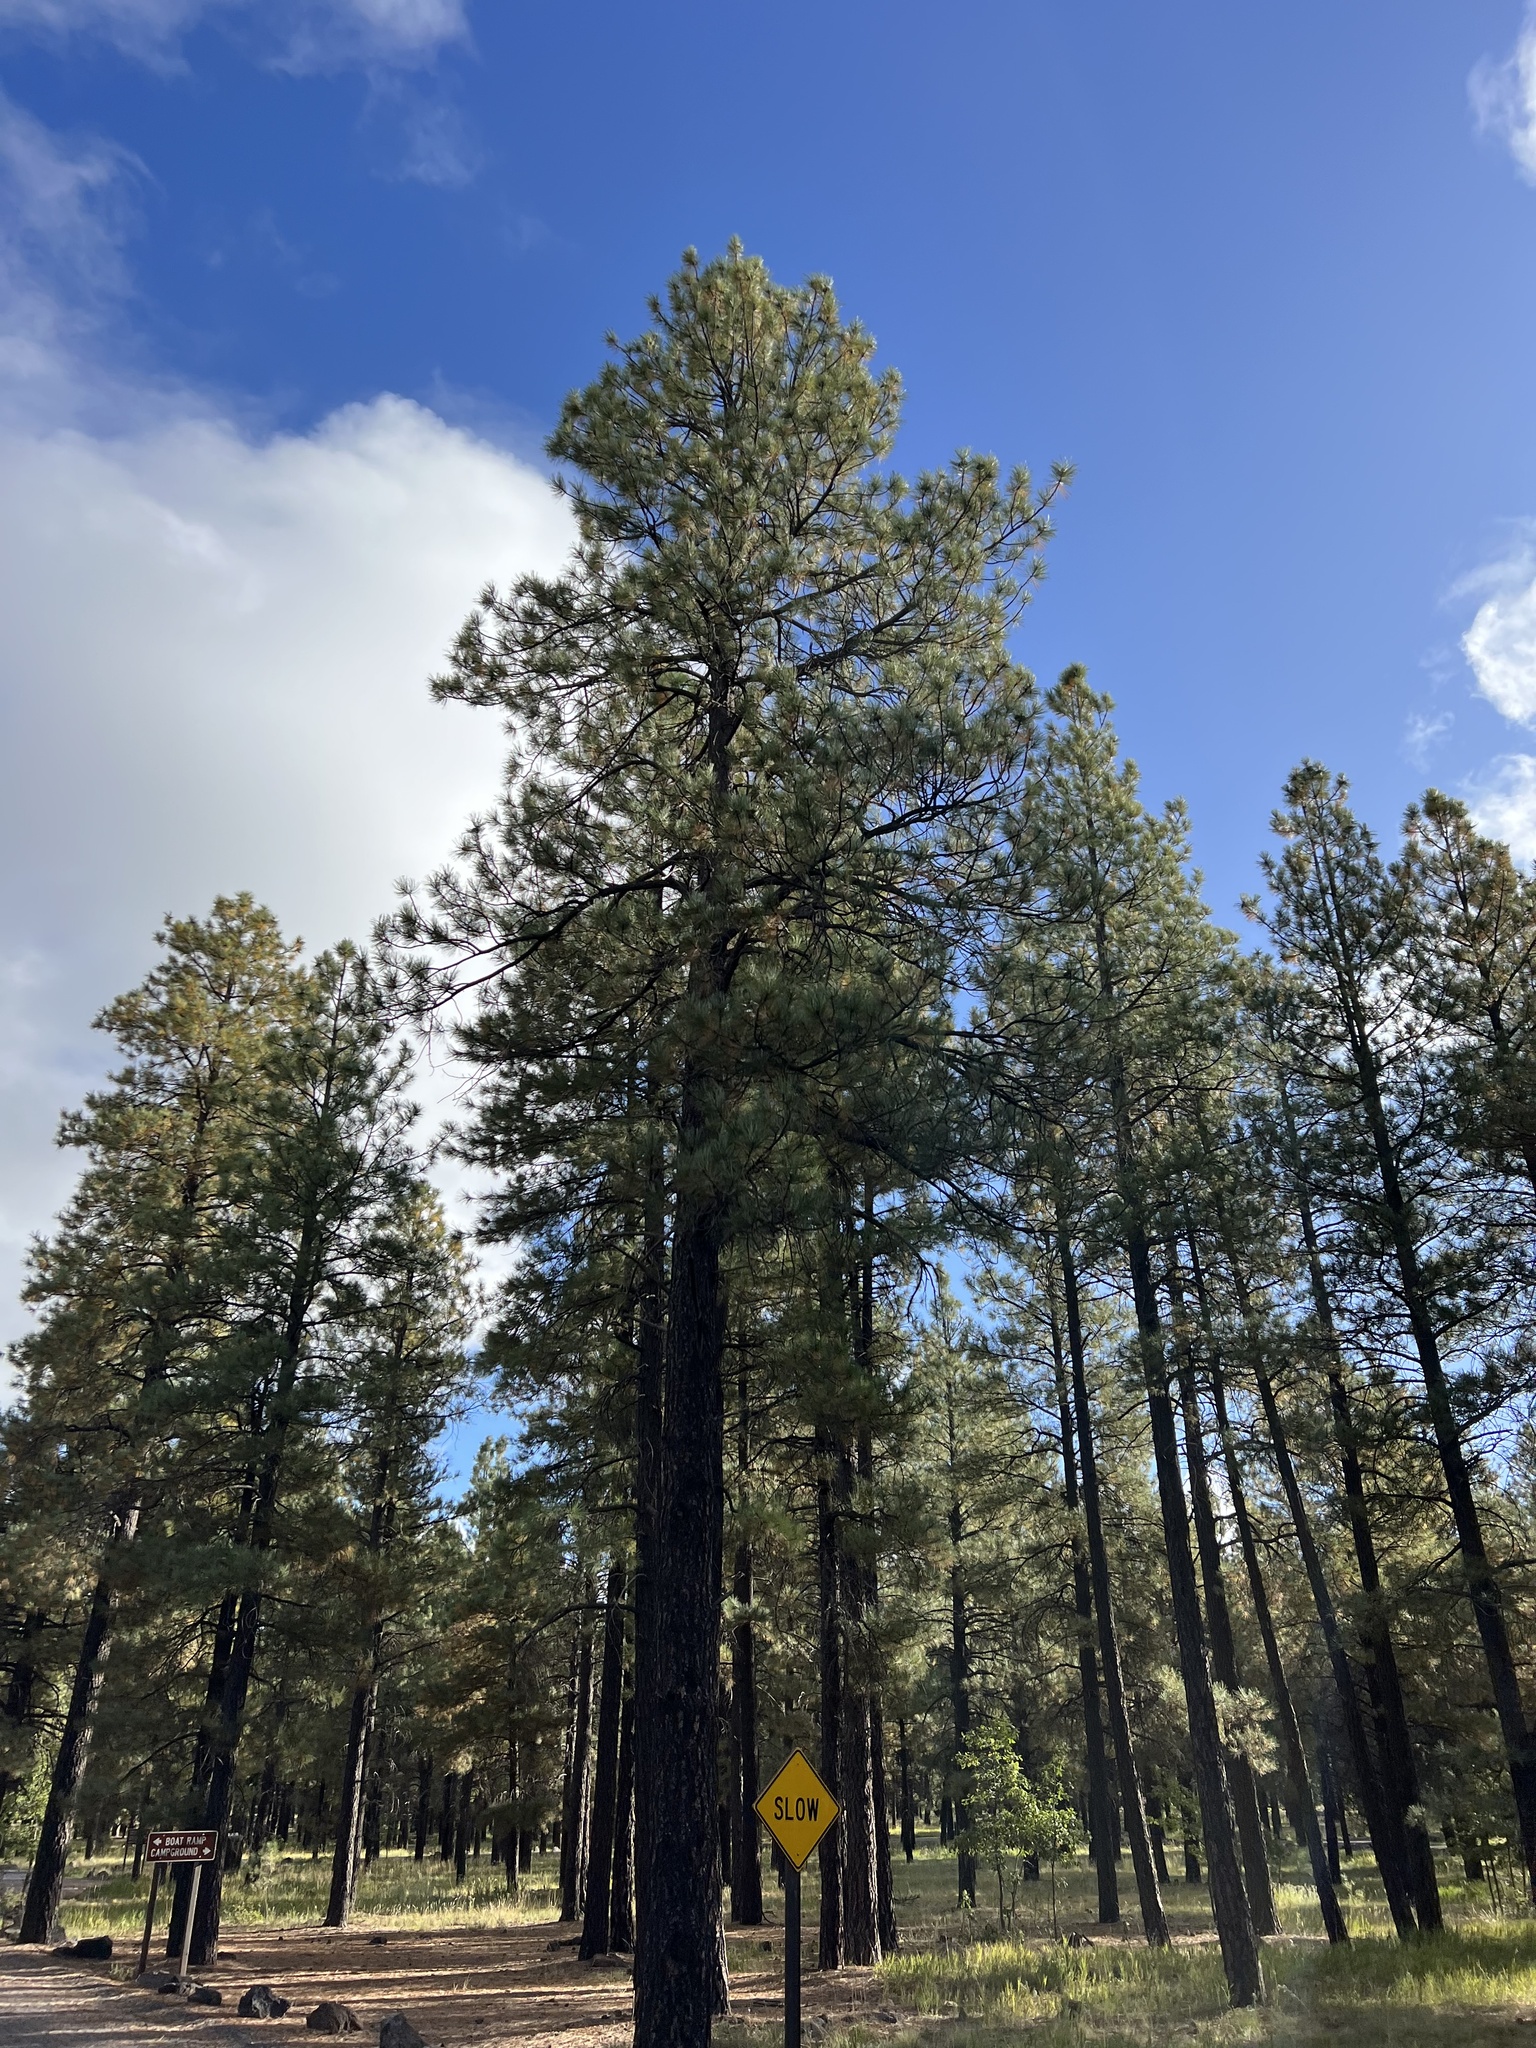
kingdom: Plantae
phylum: Tracheophyta
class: Pinopsida
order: Pinales
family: Pinaceae
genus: Pinus
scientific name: Pinus ponderosa
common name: Western yellow-pine
